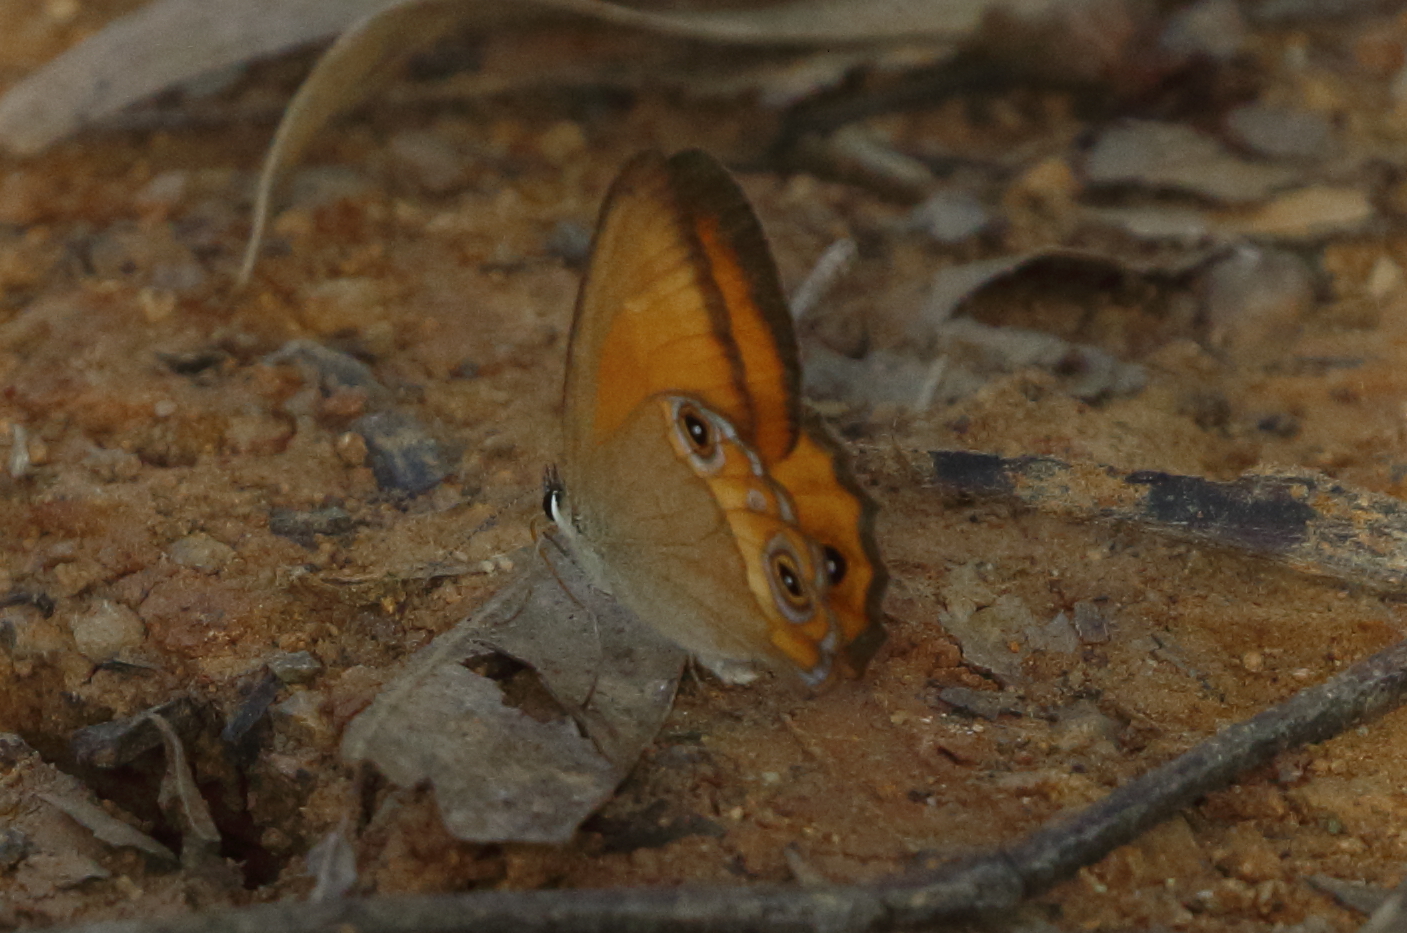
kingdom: Animalia
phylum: Arthropoda
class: Insecta
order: Lepidoptera
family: Nymphalidae
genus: Hypocysta
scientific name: Hypocysta adiante
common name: Orange ringlet
